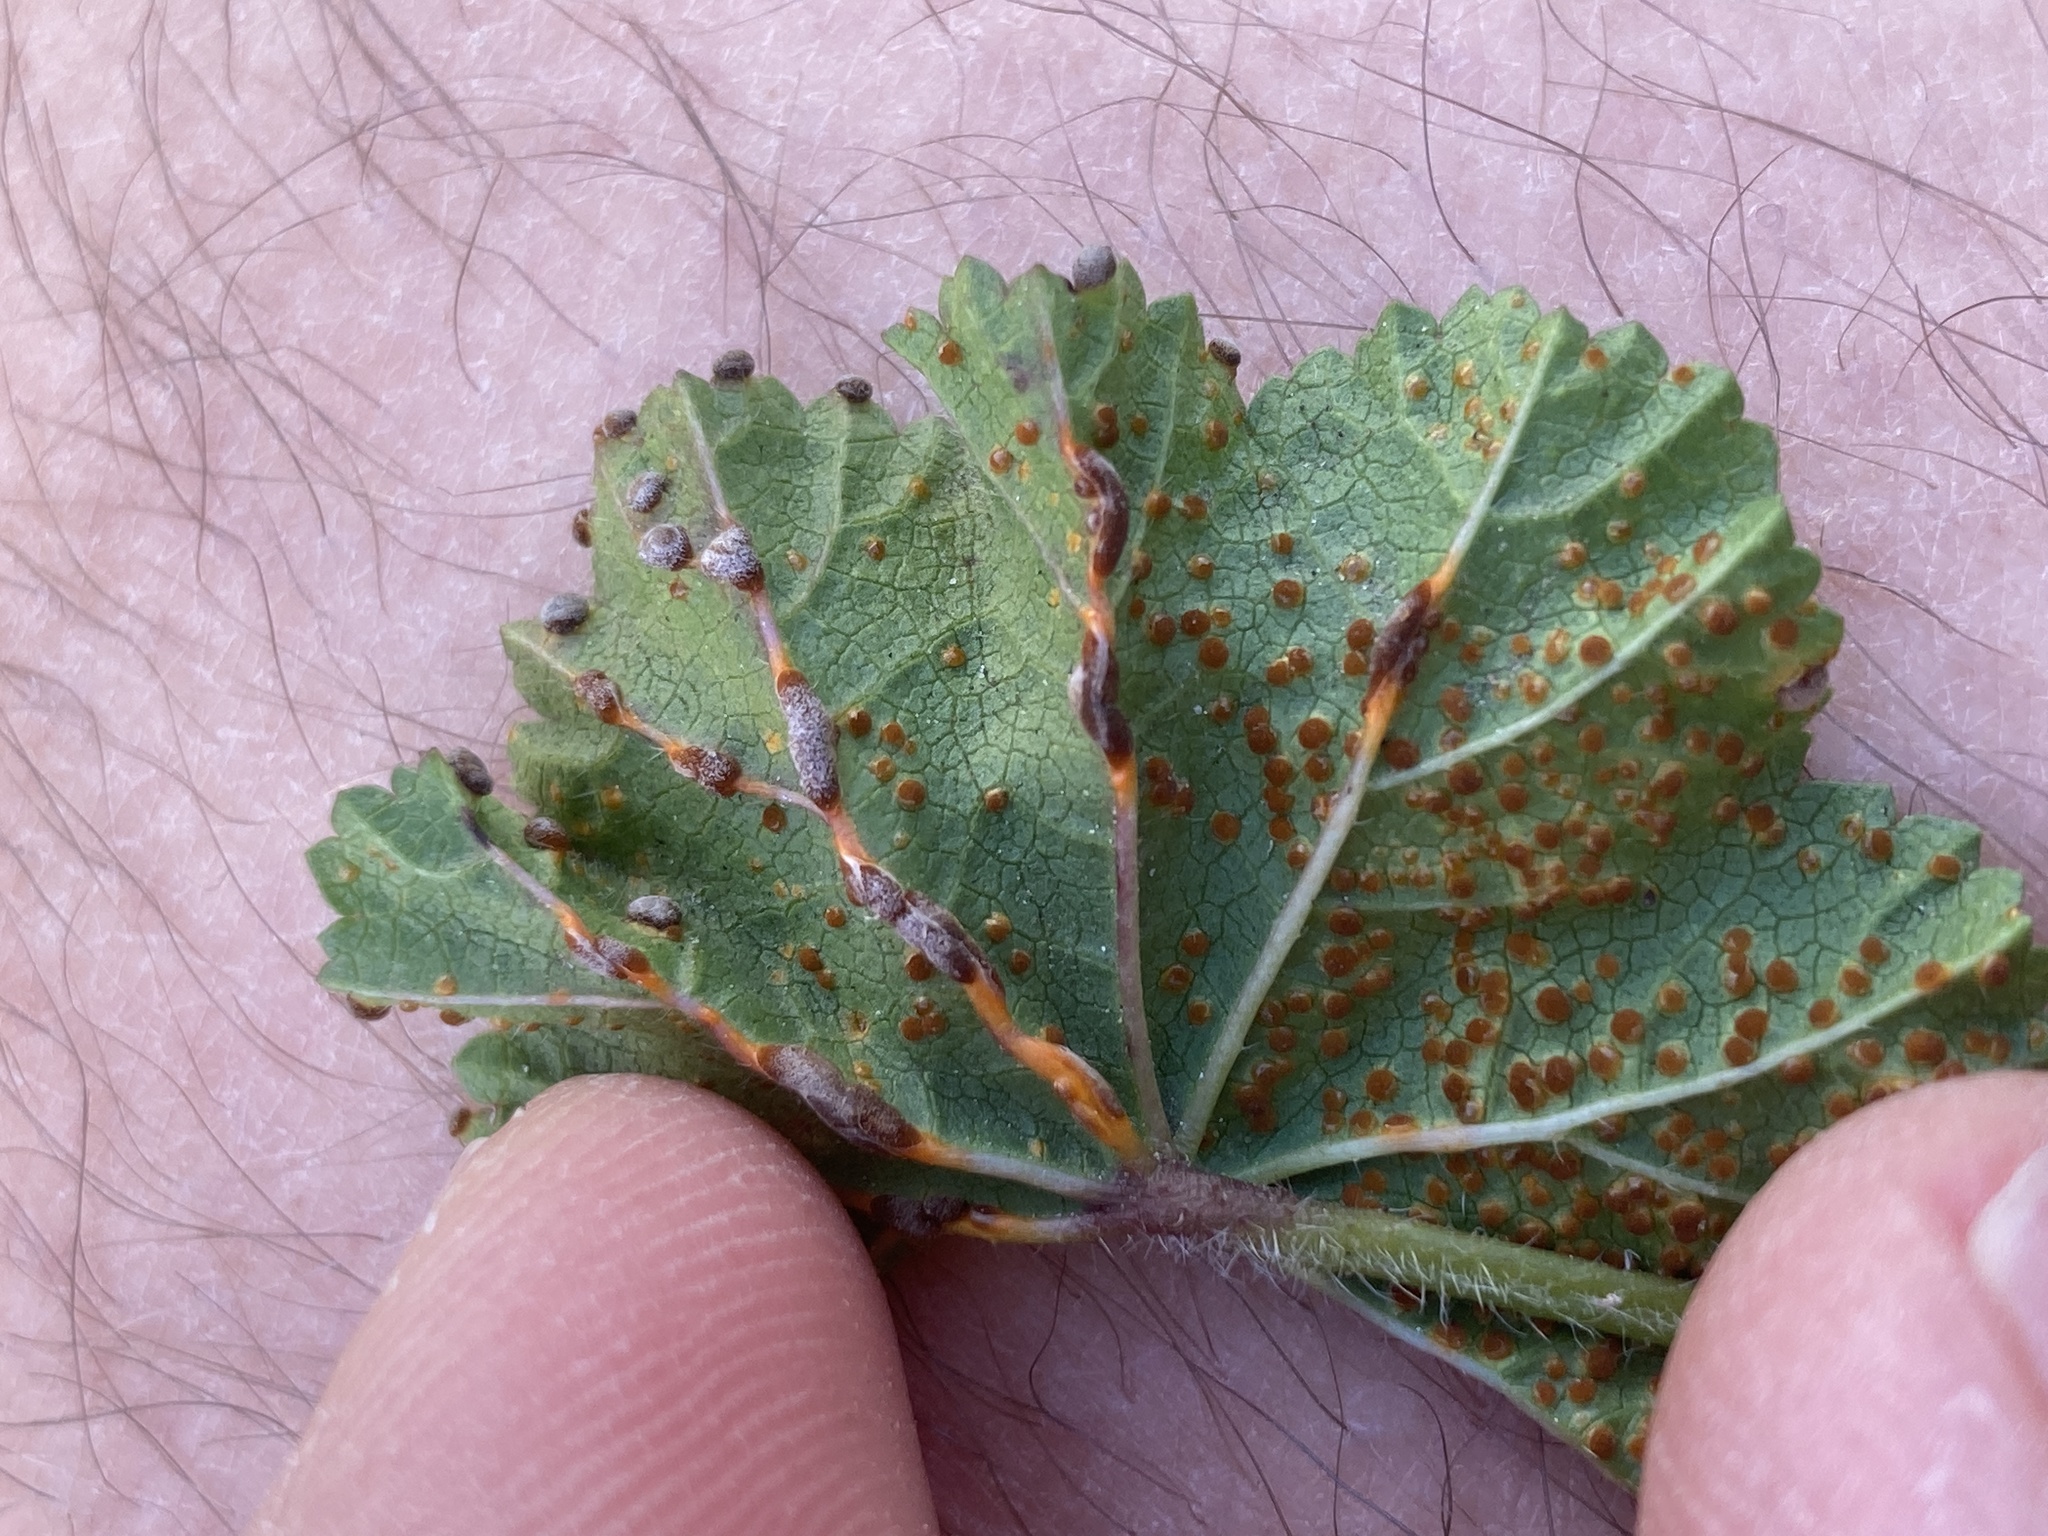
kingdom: Fungi
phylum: Basidiomycota
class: Pucciniomycetes
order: Pucciniales
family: Pucciniaceae
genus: Puccinia
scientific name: Puccinia malvacearum
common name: Hollyhock rust
